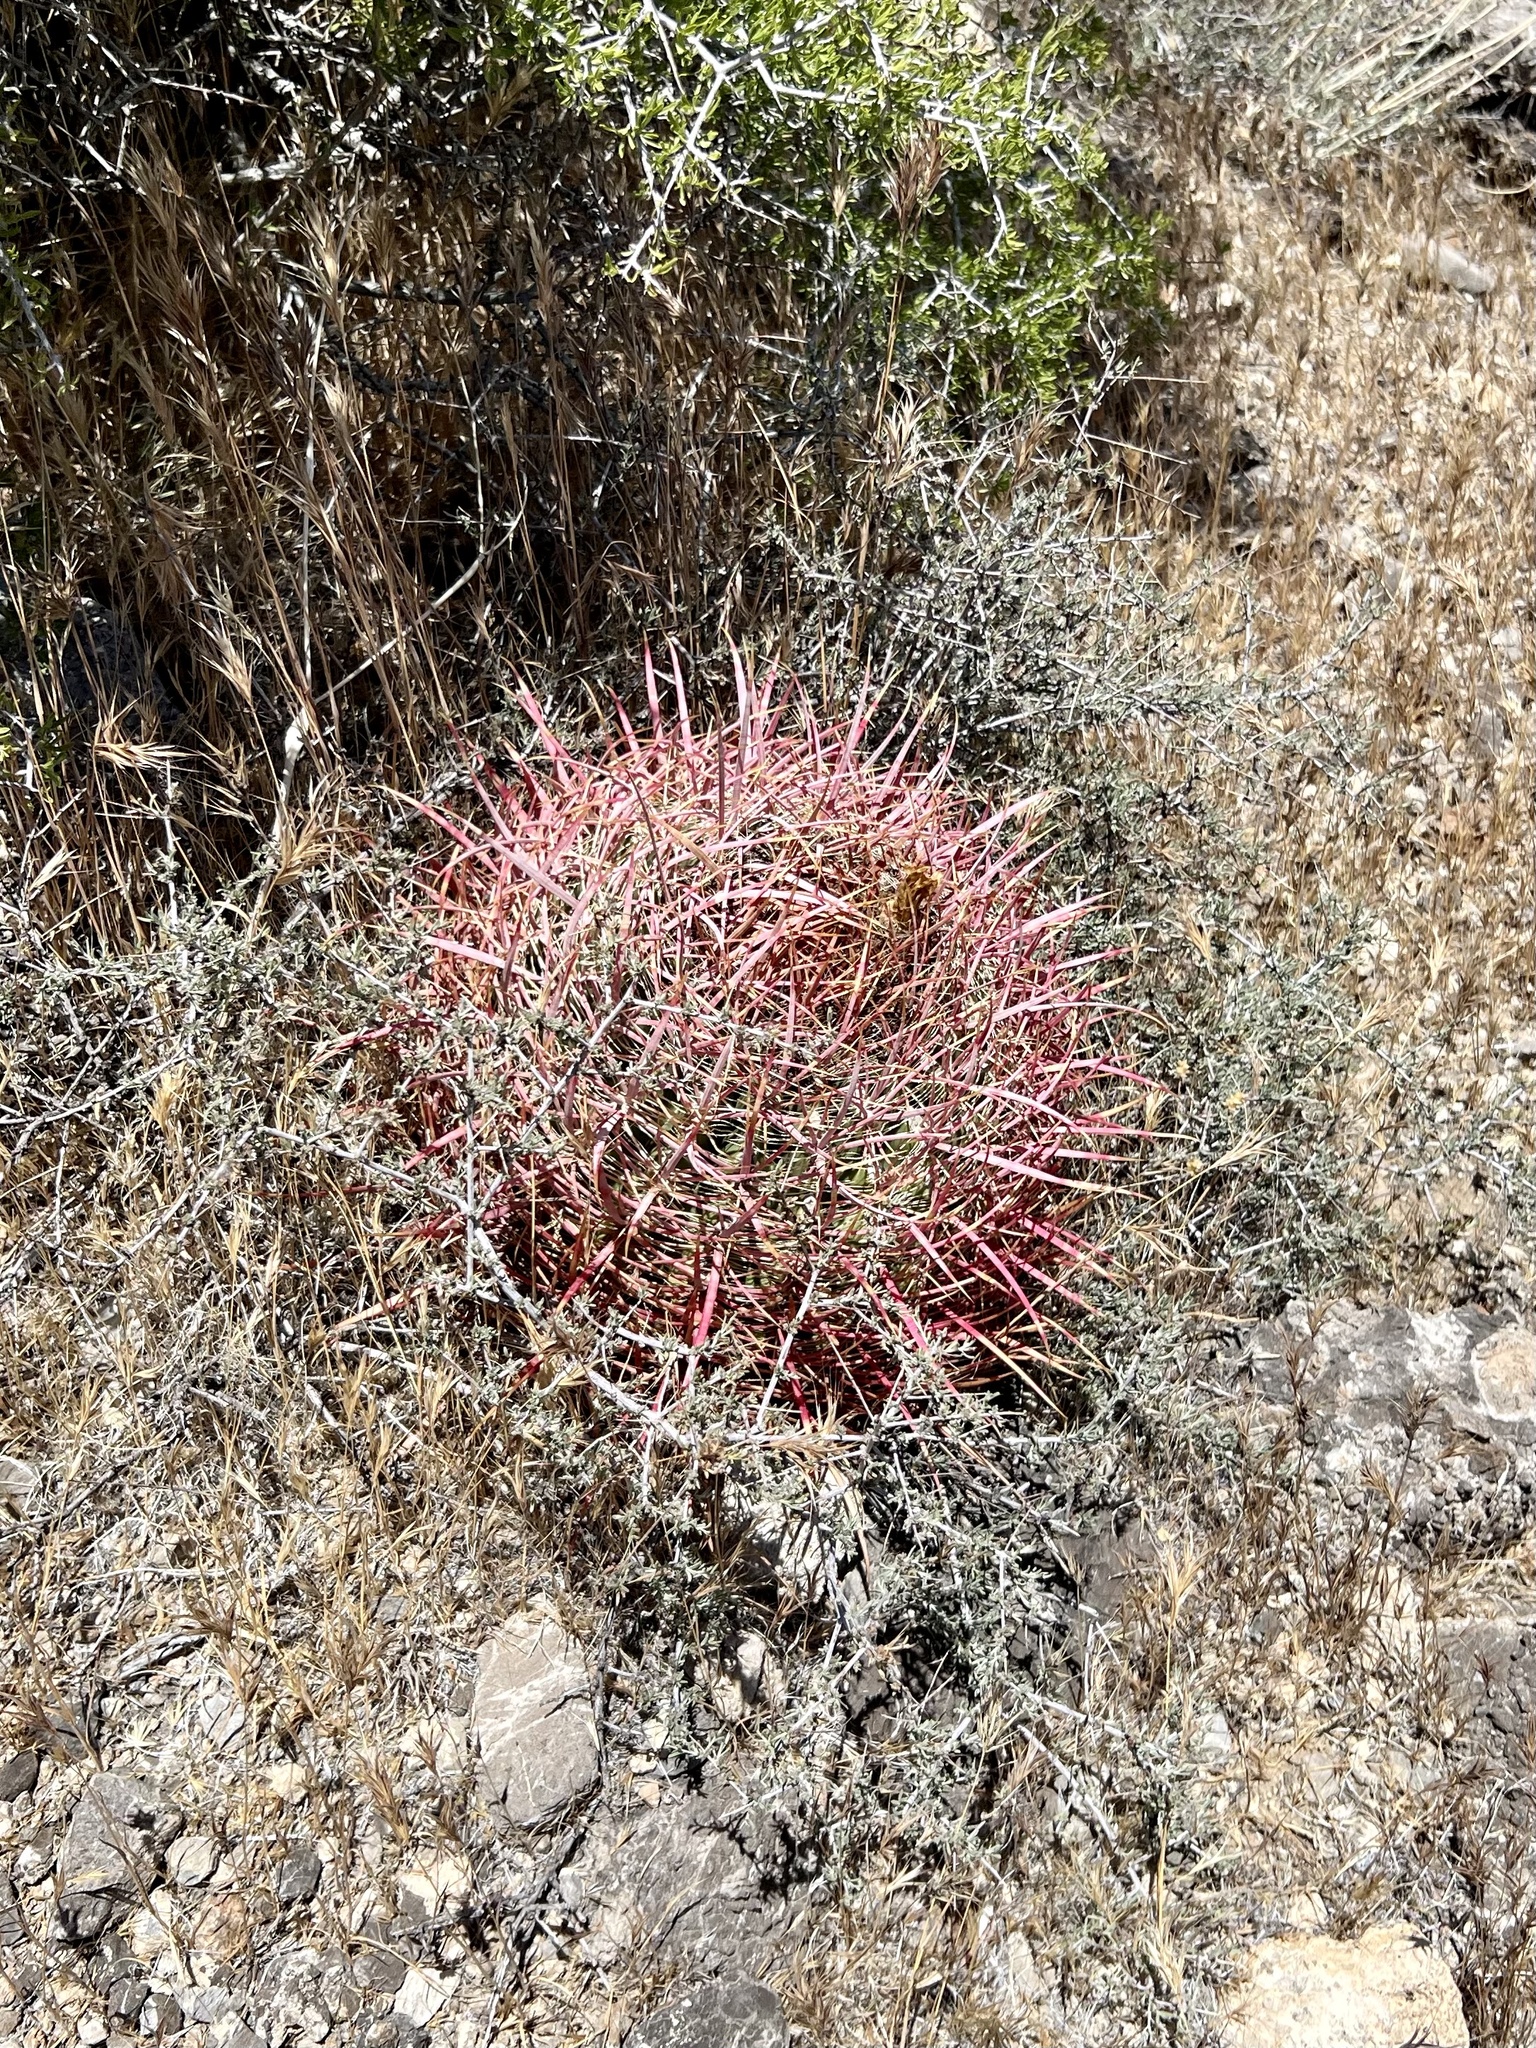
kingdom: Plantae
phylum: Tracheophyta
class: Magnoliopsida
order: Caryophyllales
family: Cactaceae
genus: Ferocactus
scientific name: Ferocactus cylindraceus
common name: California barrel cactus
